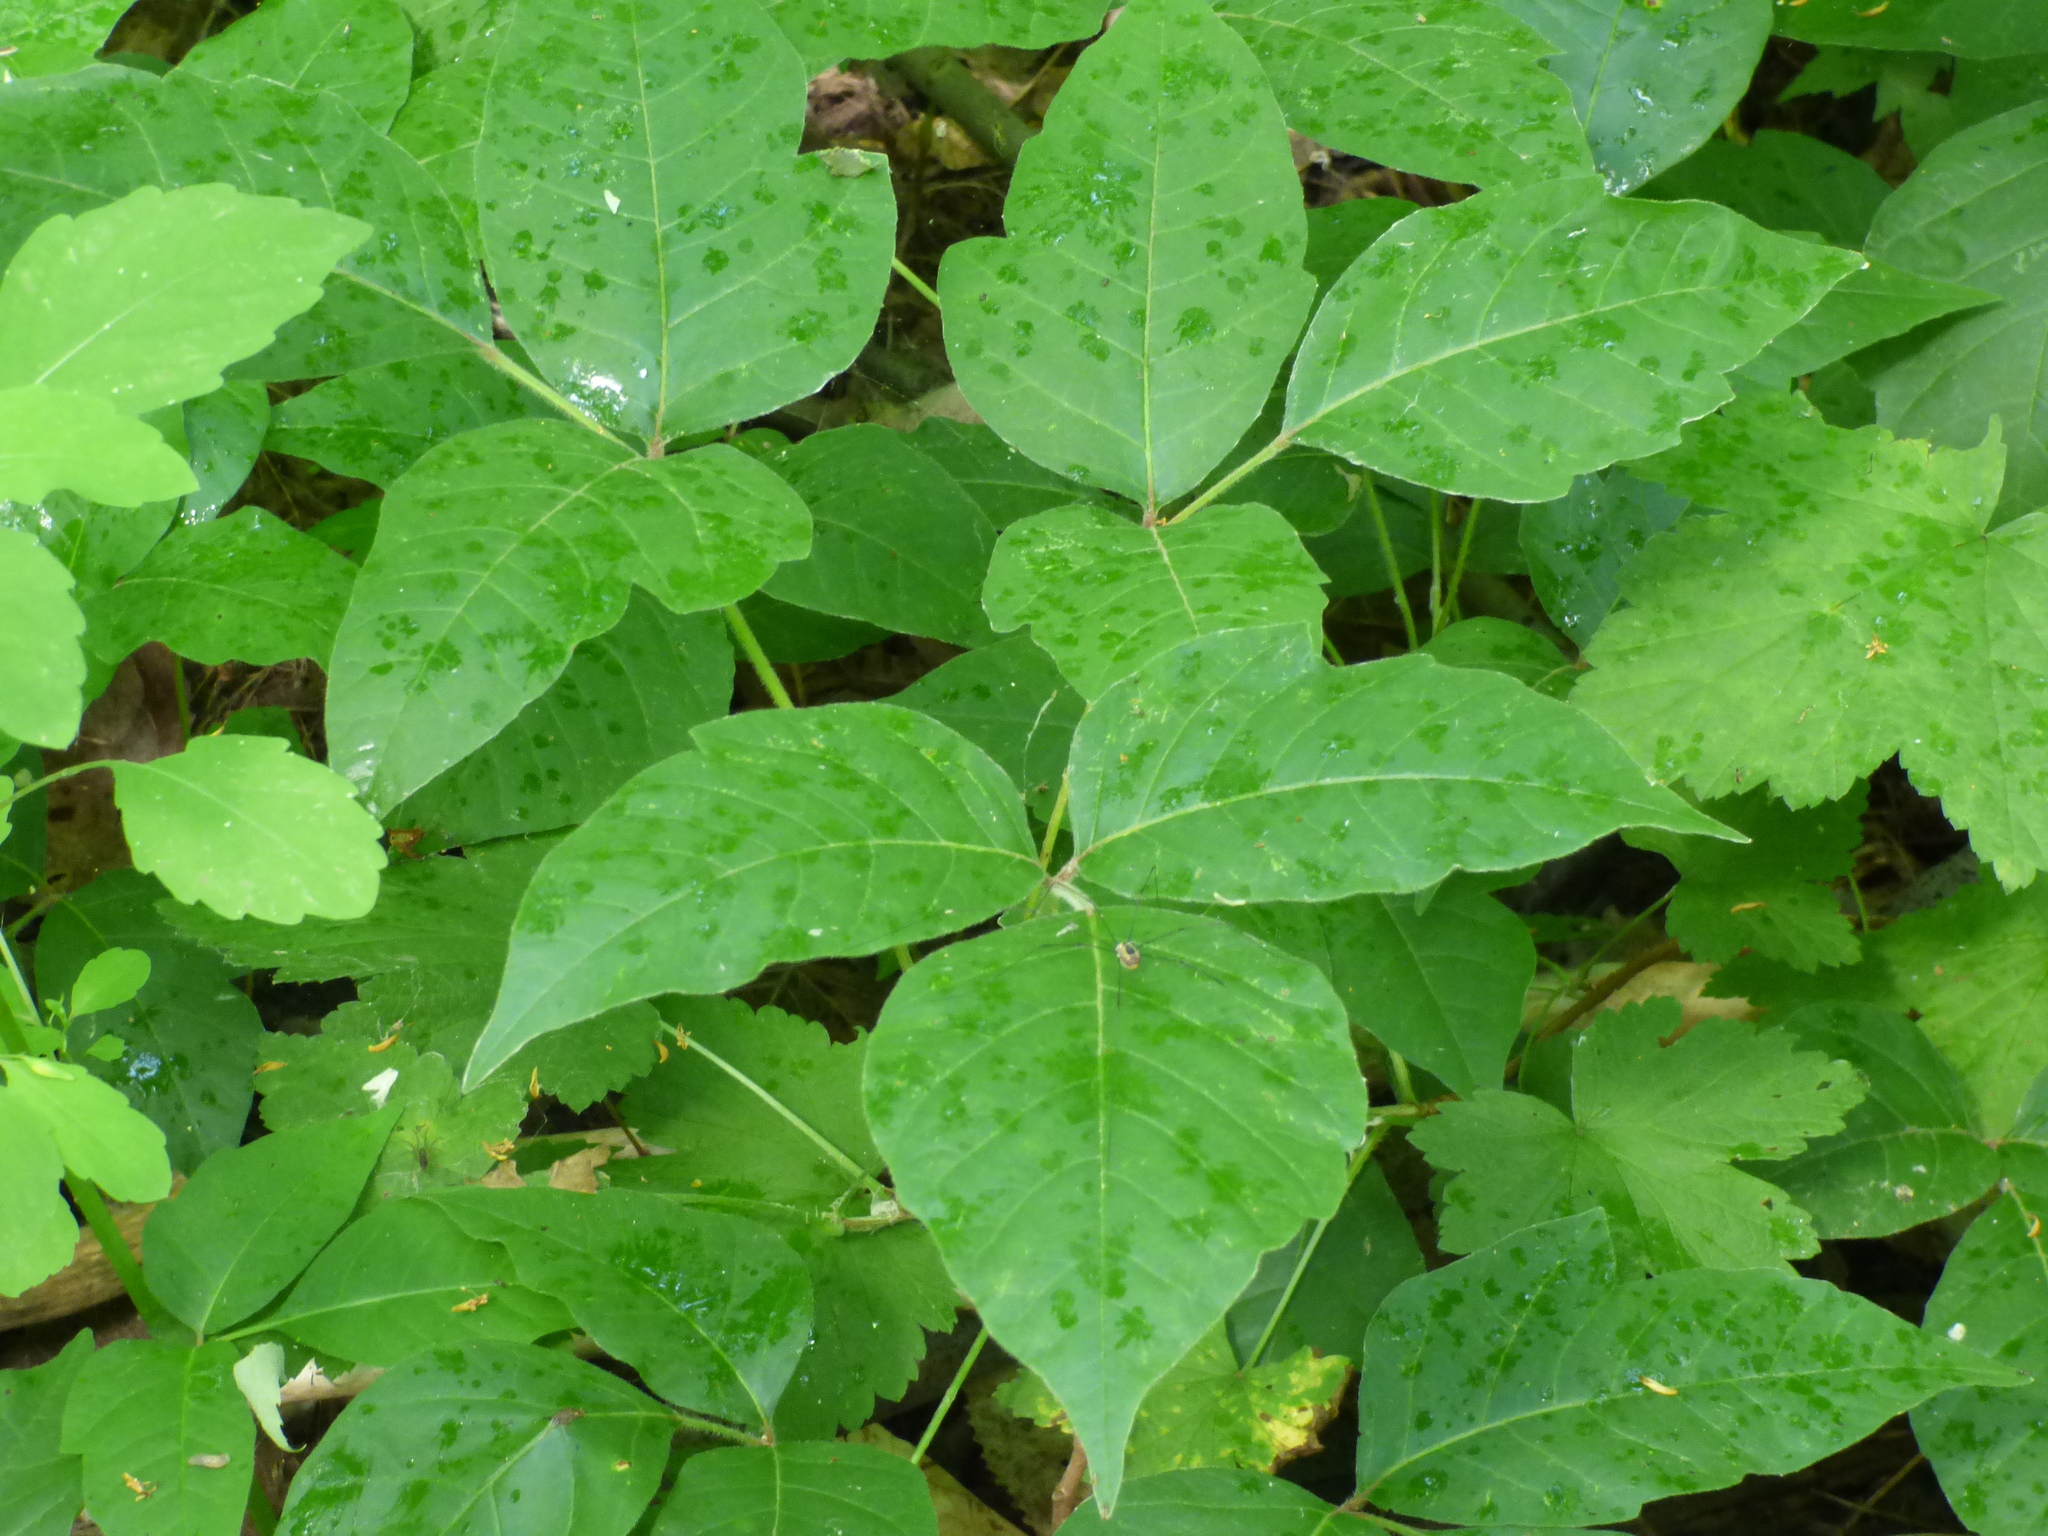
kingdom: Plantae
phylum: Tracheophyta
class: Magnoliopsida
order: Sapindales
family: Anacardiaceae
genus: Toxicodendron
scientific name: Toxicodendron radicans
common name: Poison ivy
